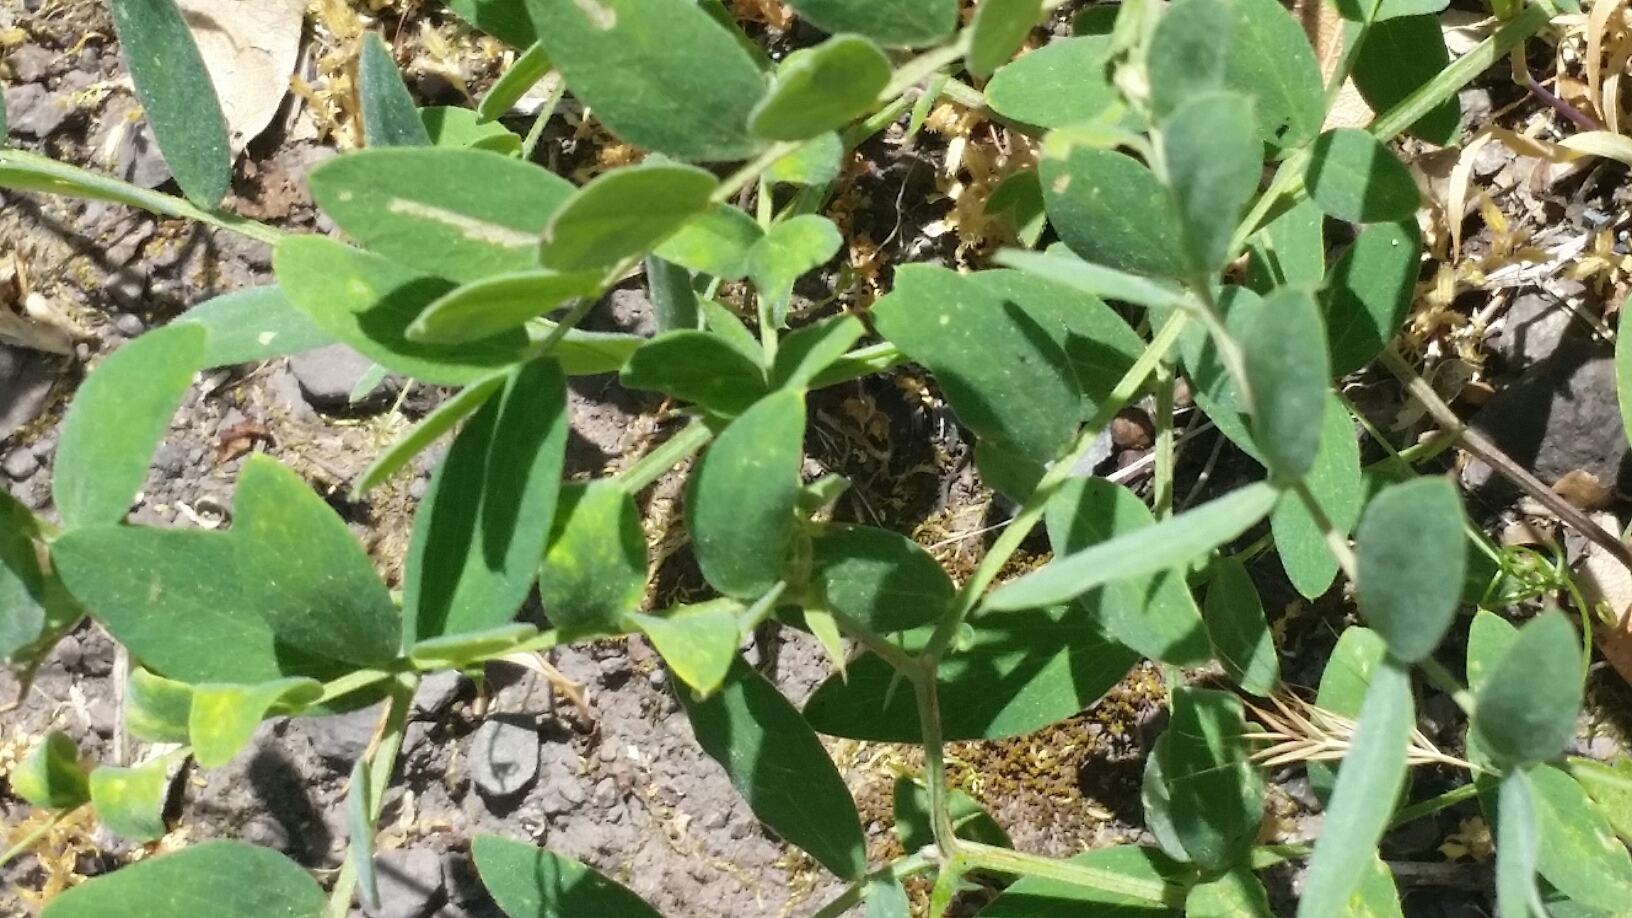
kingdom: Plantae
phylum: Tracheophyta
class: Magnoliopsida
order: Fabales
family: Fabaceae
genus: Lathyrus
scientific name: Lathyrus vestitus
